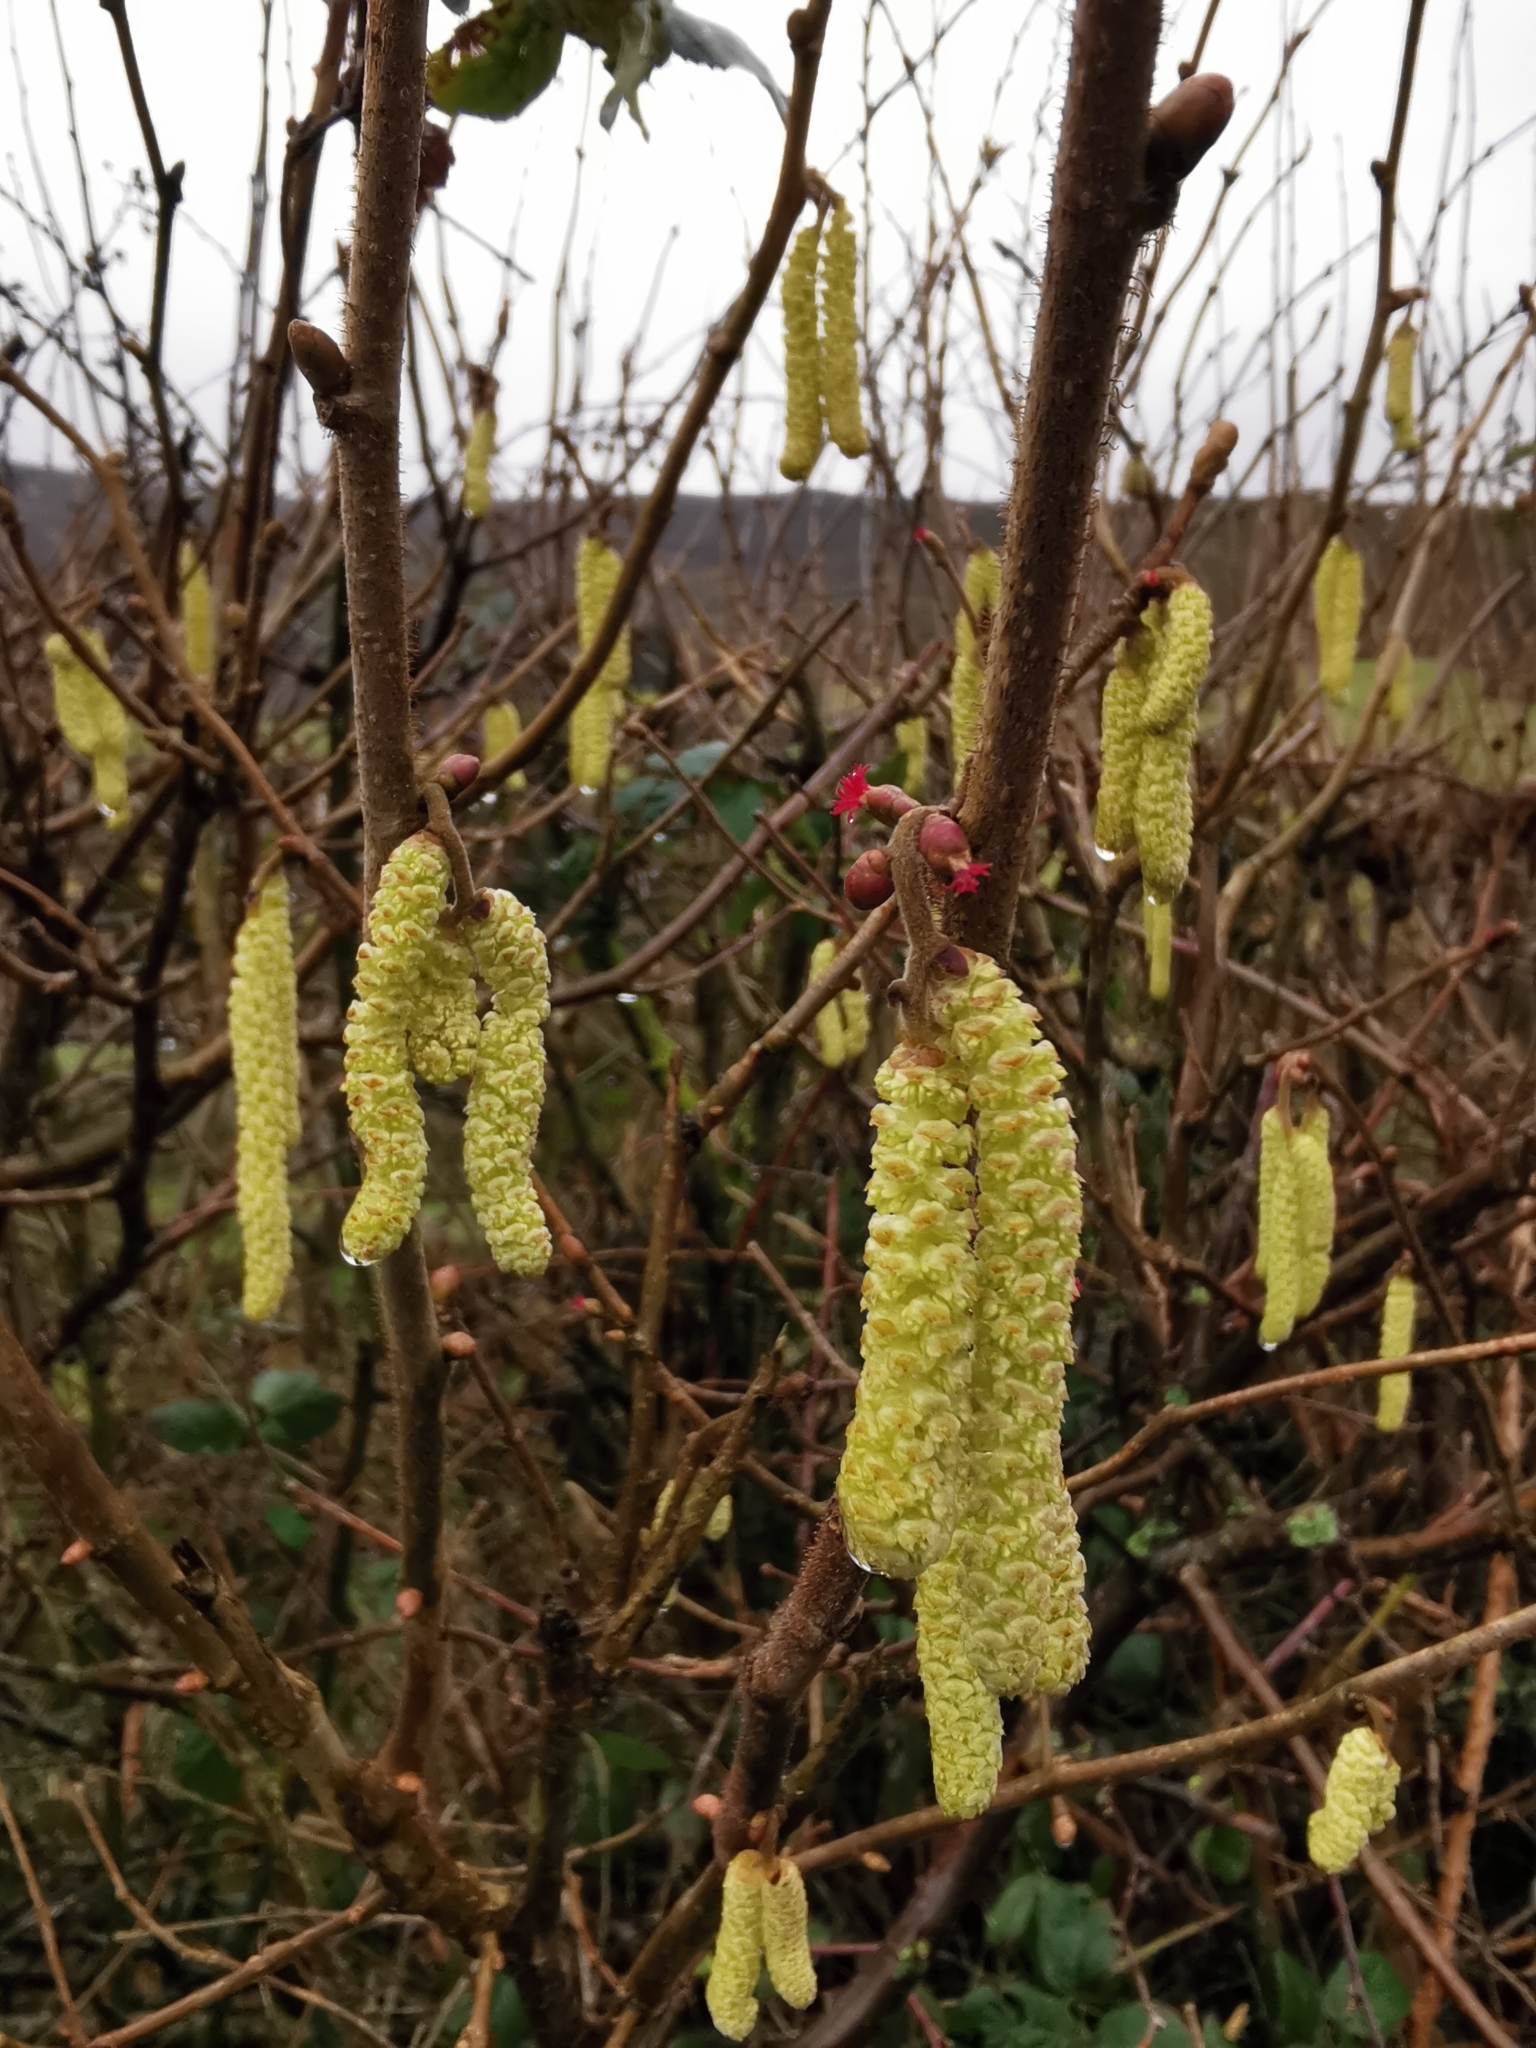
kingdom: Plantae
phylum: Tracheophyta
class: Magnoliopsida
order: Fagales
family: Betulaceae
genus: Corylus
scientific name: Corylus avellana
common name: European hazel
